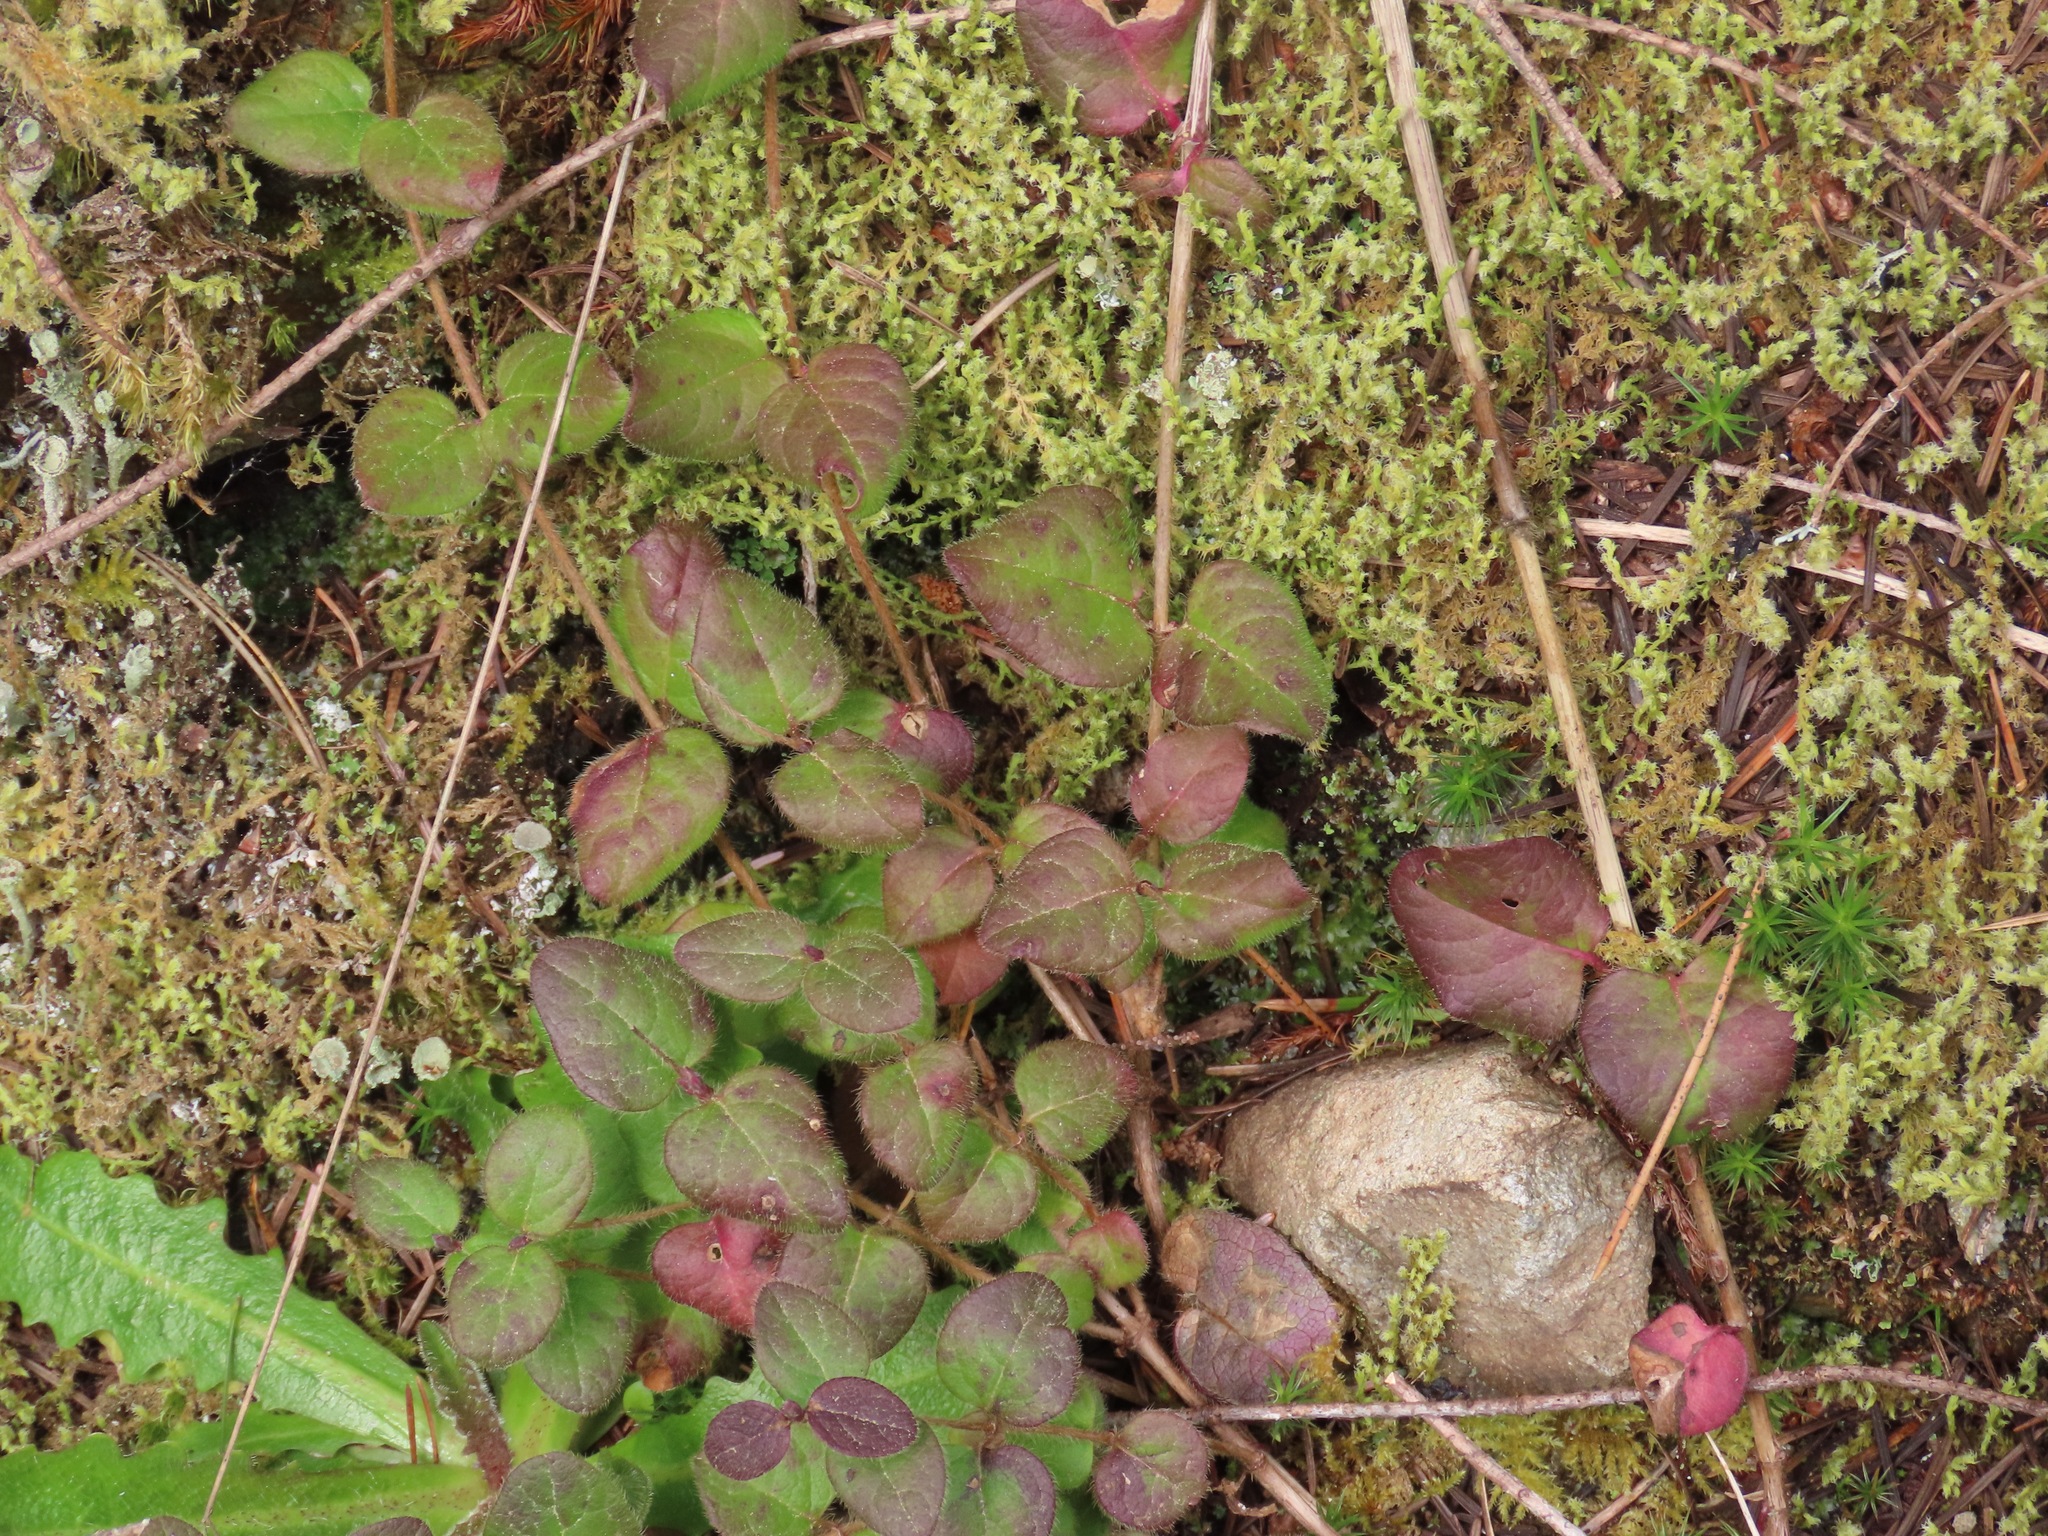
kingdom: Plantae
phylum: Tracheophyta
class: Magnoliopsida
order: Dipsacales
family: Caprifoliaceae
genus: Lonicera
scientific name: Lonicera hispidula
